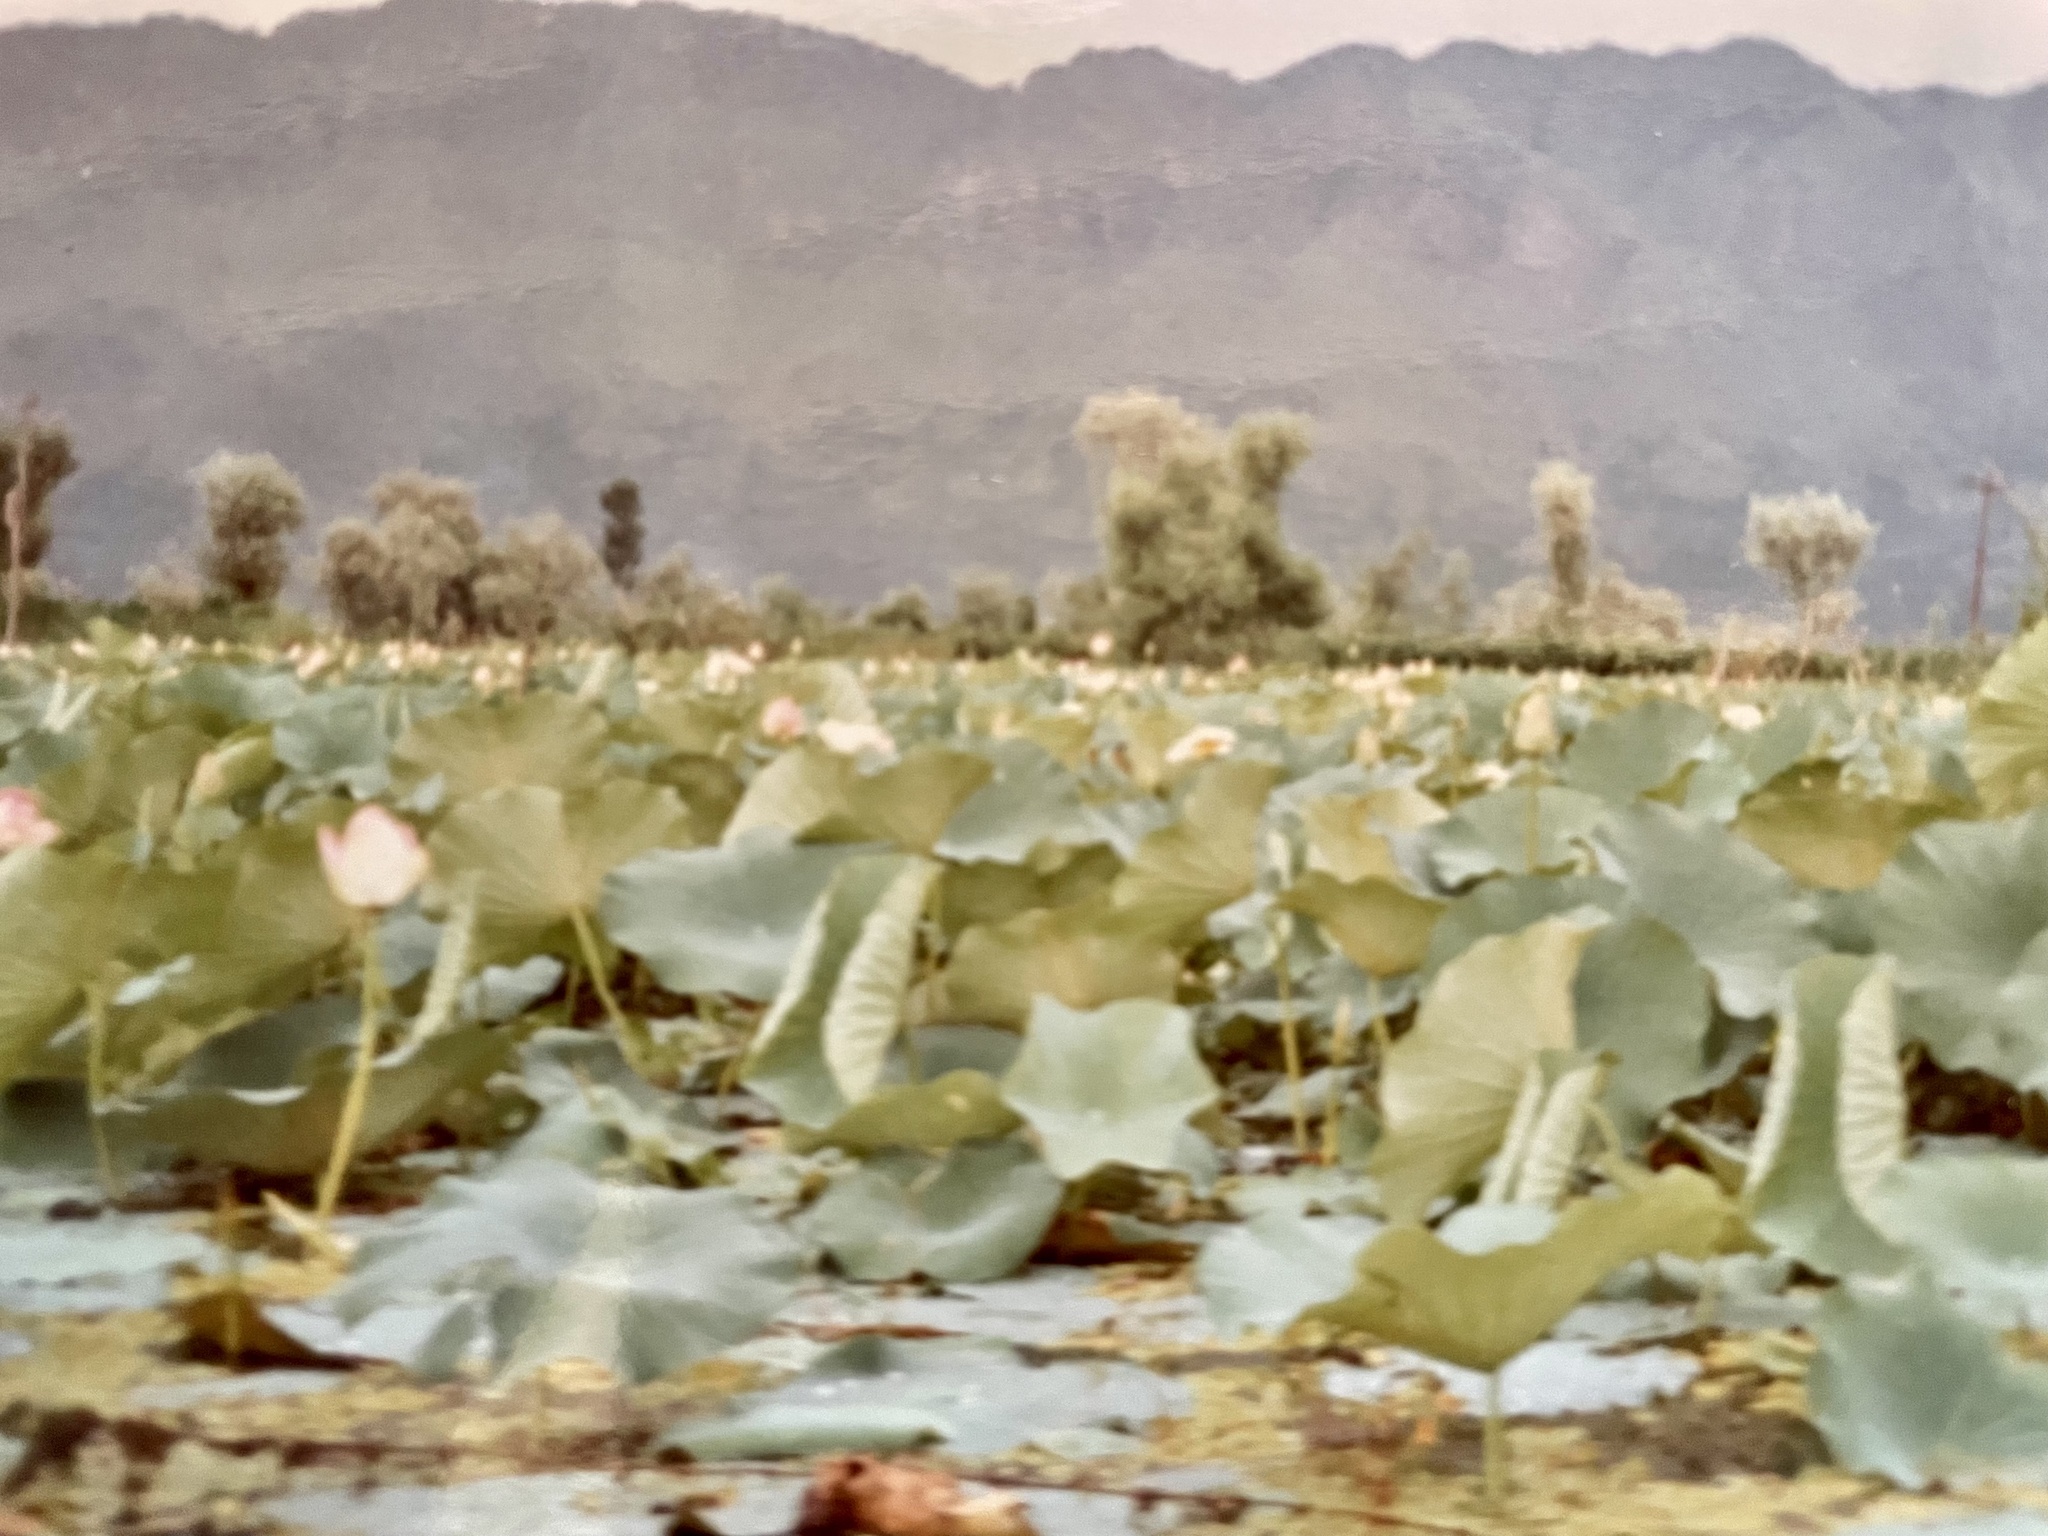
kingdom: Plantae
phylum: Tracheophyta
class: Magnoliopsida
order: Proteales
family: Nelumbonaceae
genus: Nelumbo
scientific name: Nelumbo nucifera
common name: Sacred lotus
